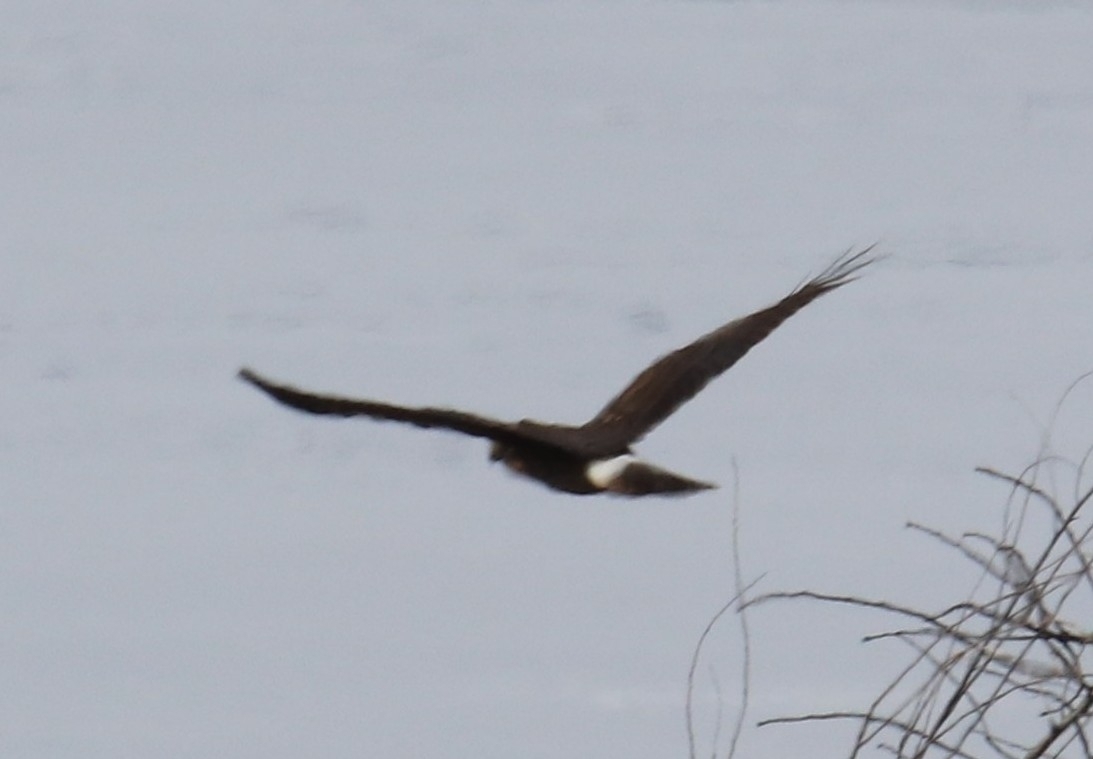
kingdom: Animalia
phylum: Chordata
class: Aves
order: Accipitriformes
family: Accipitridae
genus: Circus
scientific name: Circus cyaneus
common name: Hen harrier
